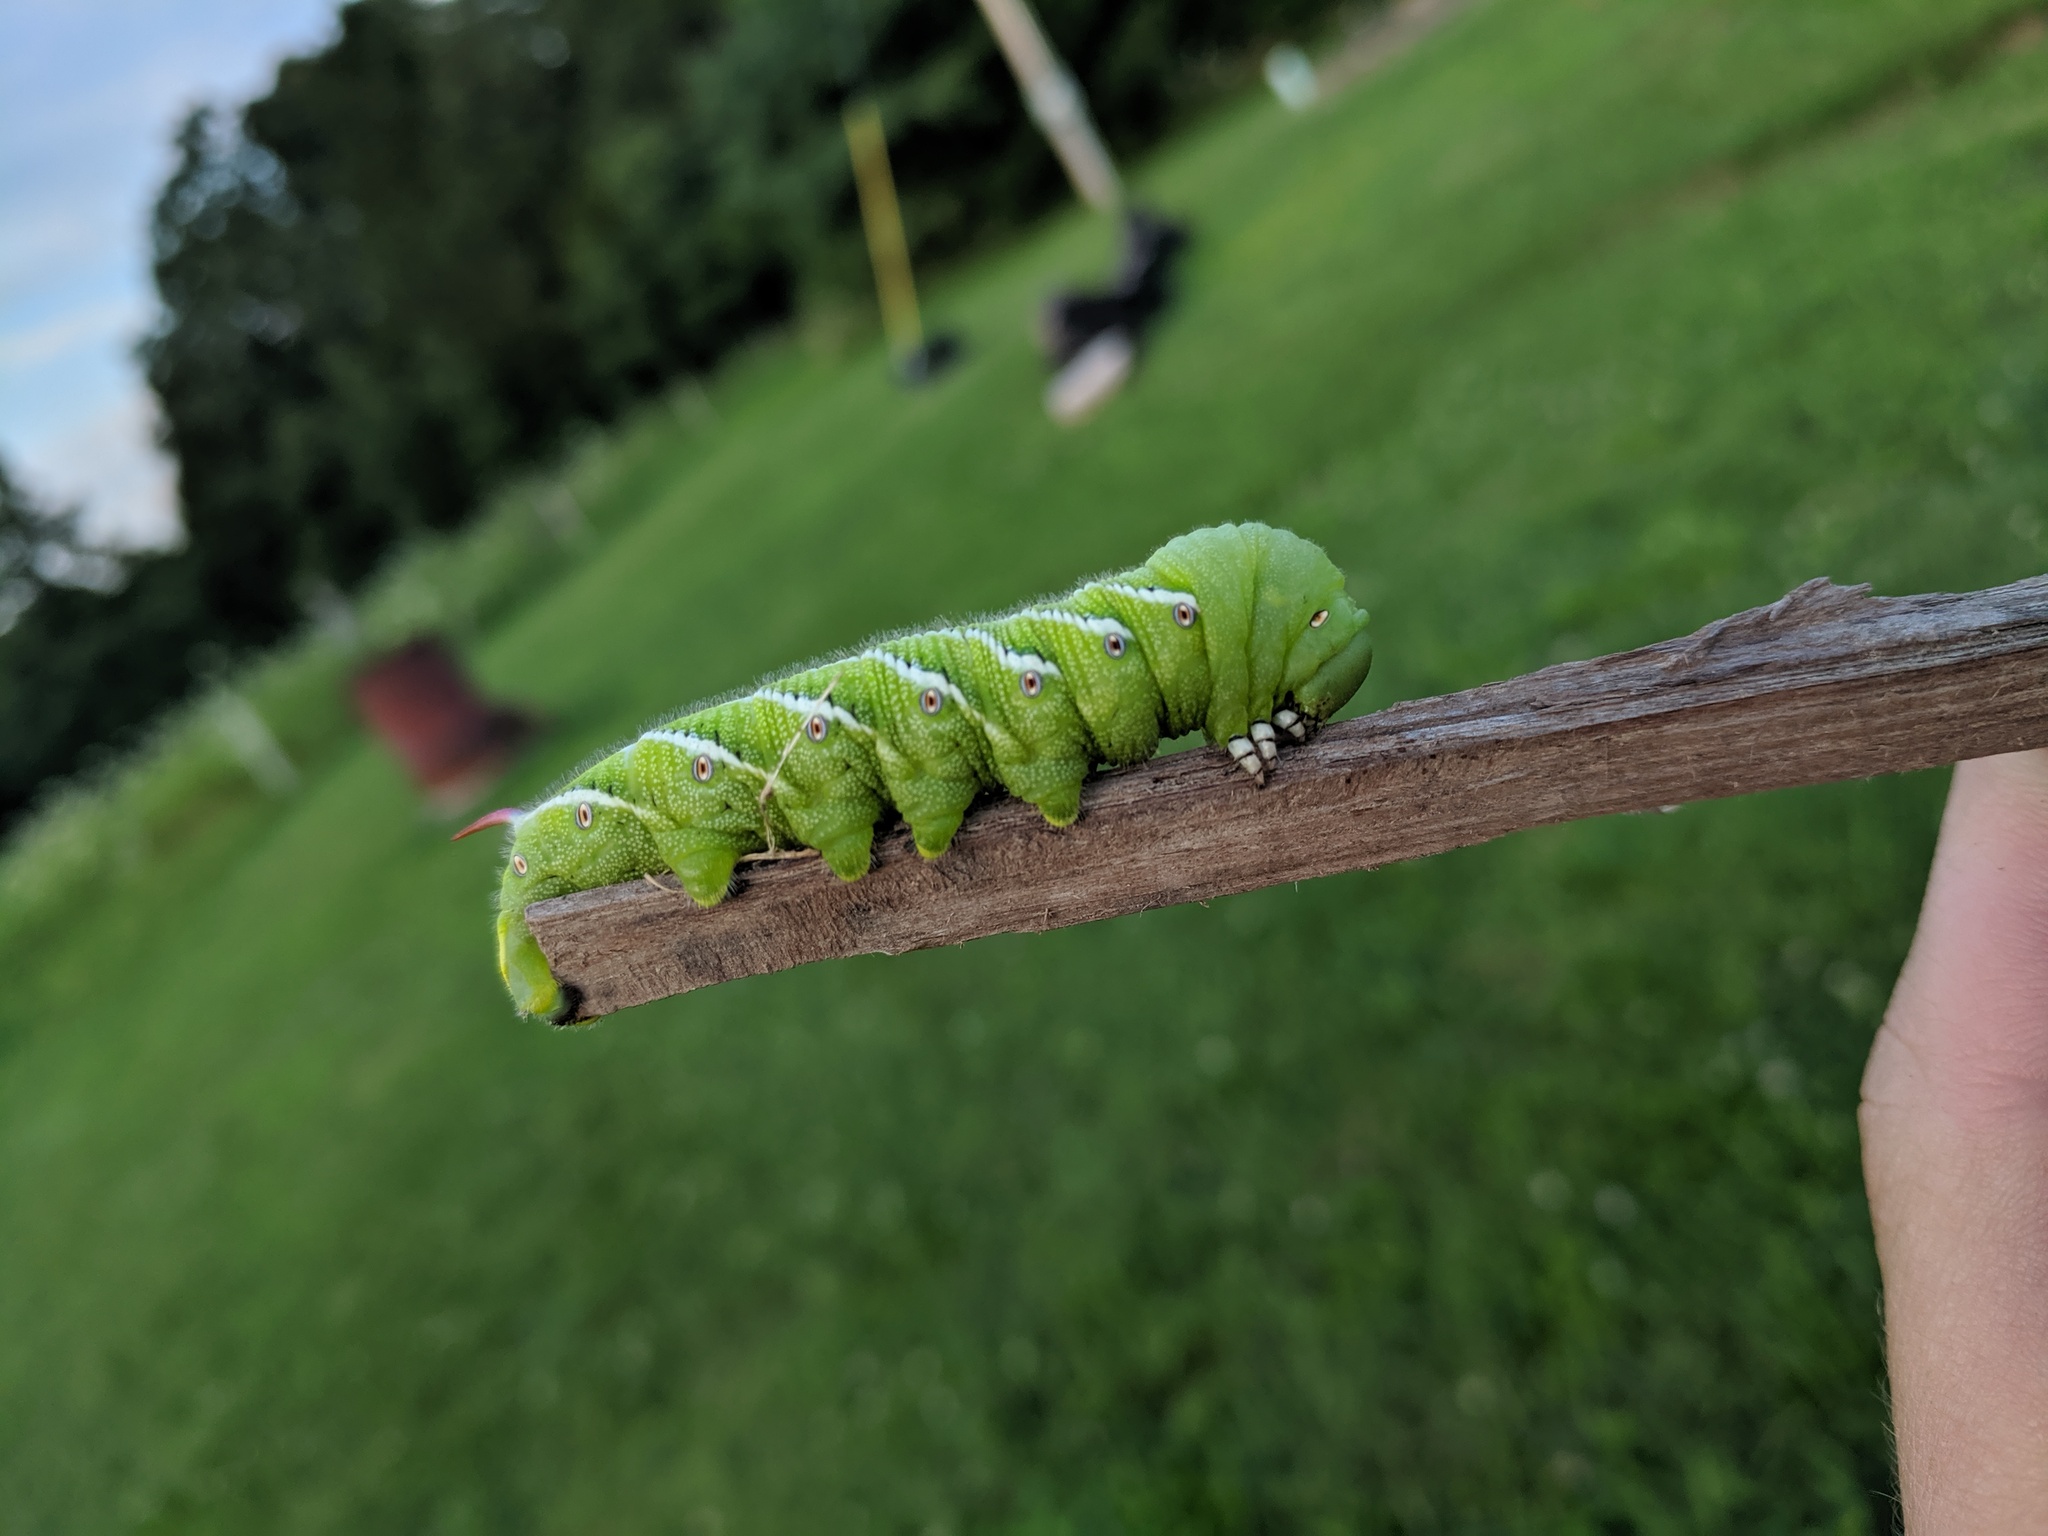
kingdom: Animalia
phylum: Arthropoda
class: Insecta
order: Lepidoptera
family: Sphingidae
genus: Manduca
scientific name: Manduca sexta
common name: Carolina sphinx
